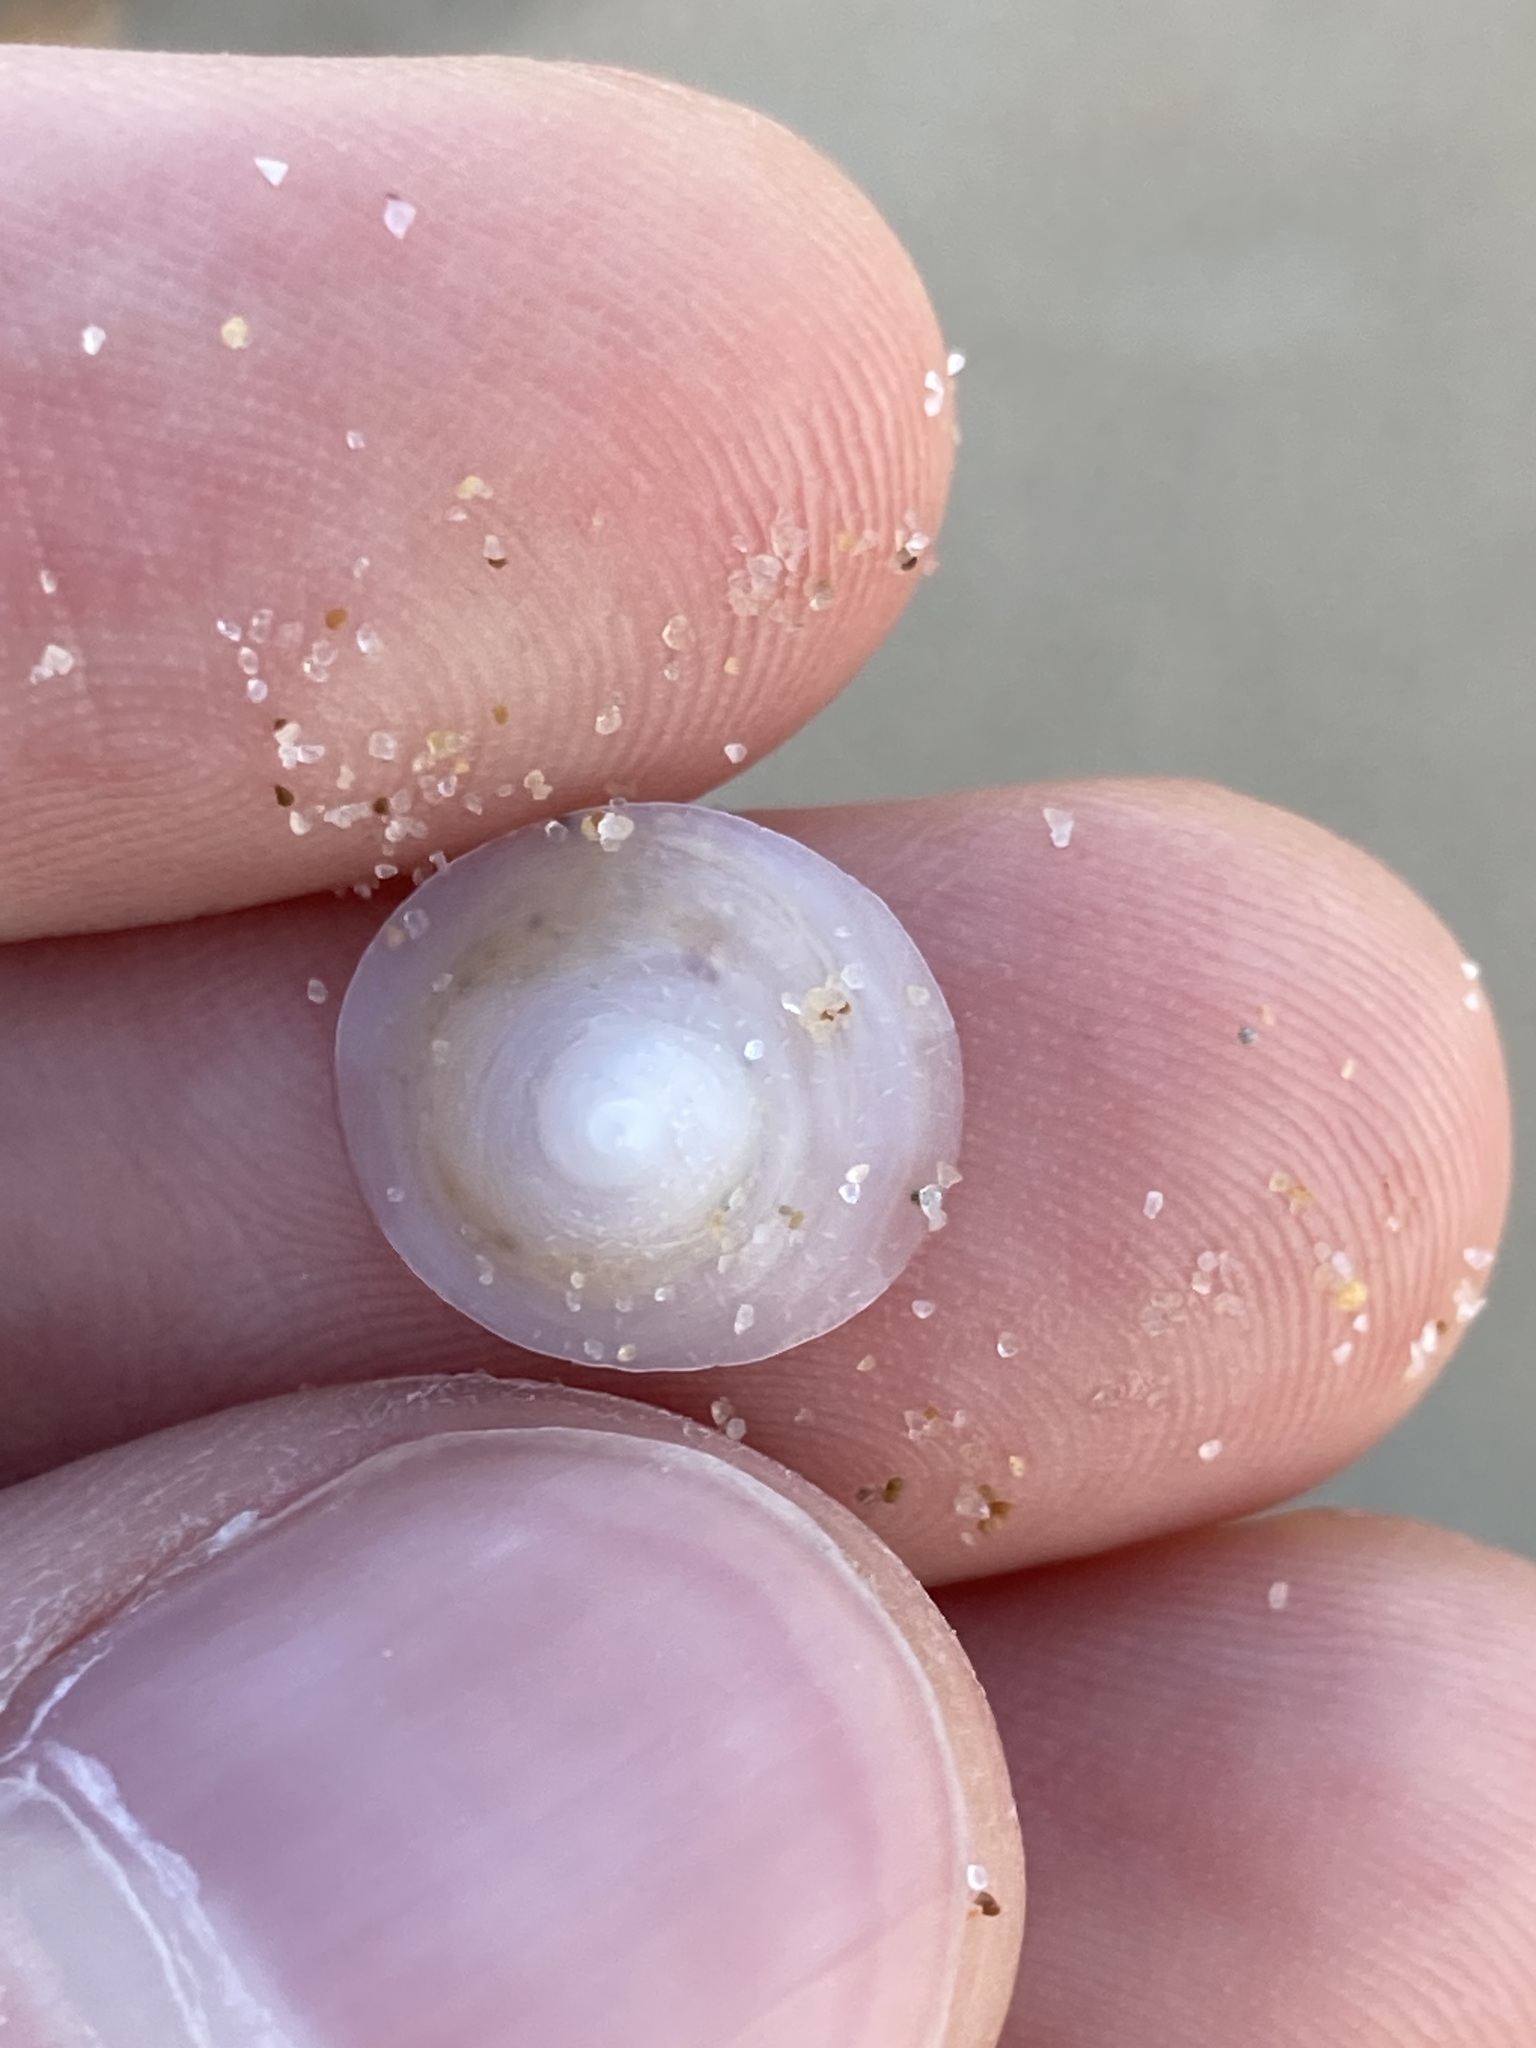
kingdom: Animalia
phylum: Mollusca
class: Gastropoda
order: Littorinimorpha
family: Calyptraeidae
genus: Sigapatella
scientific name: Sigapatella hedleyi
